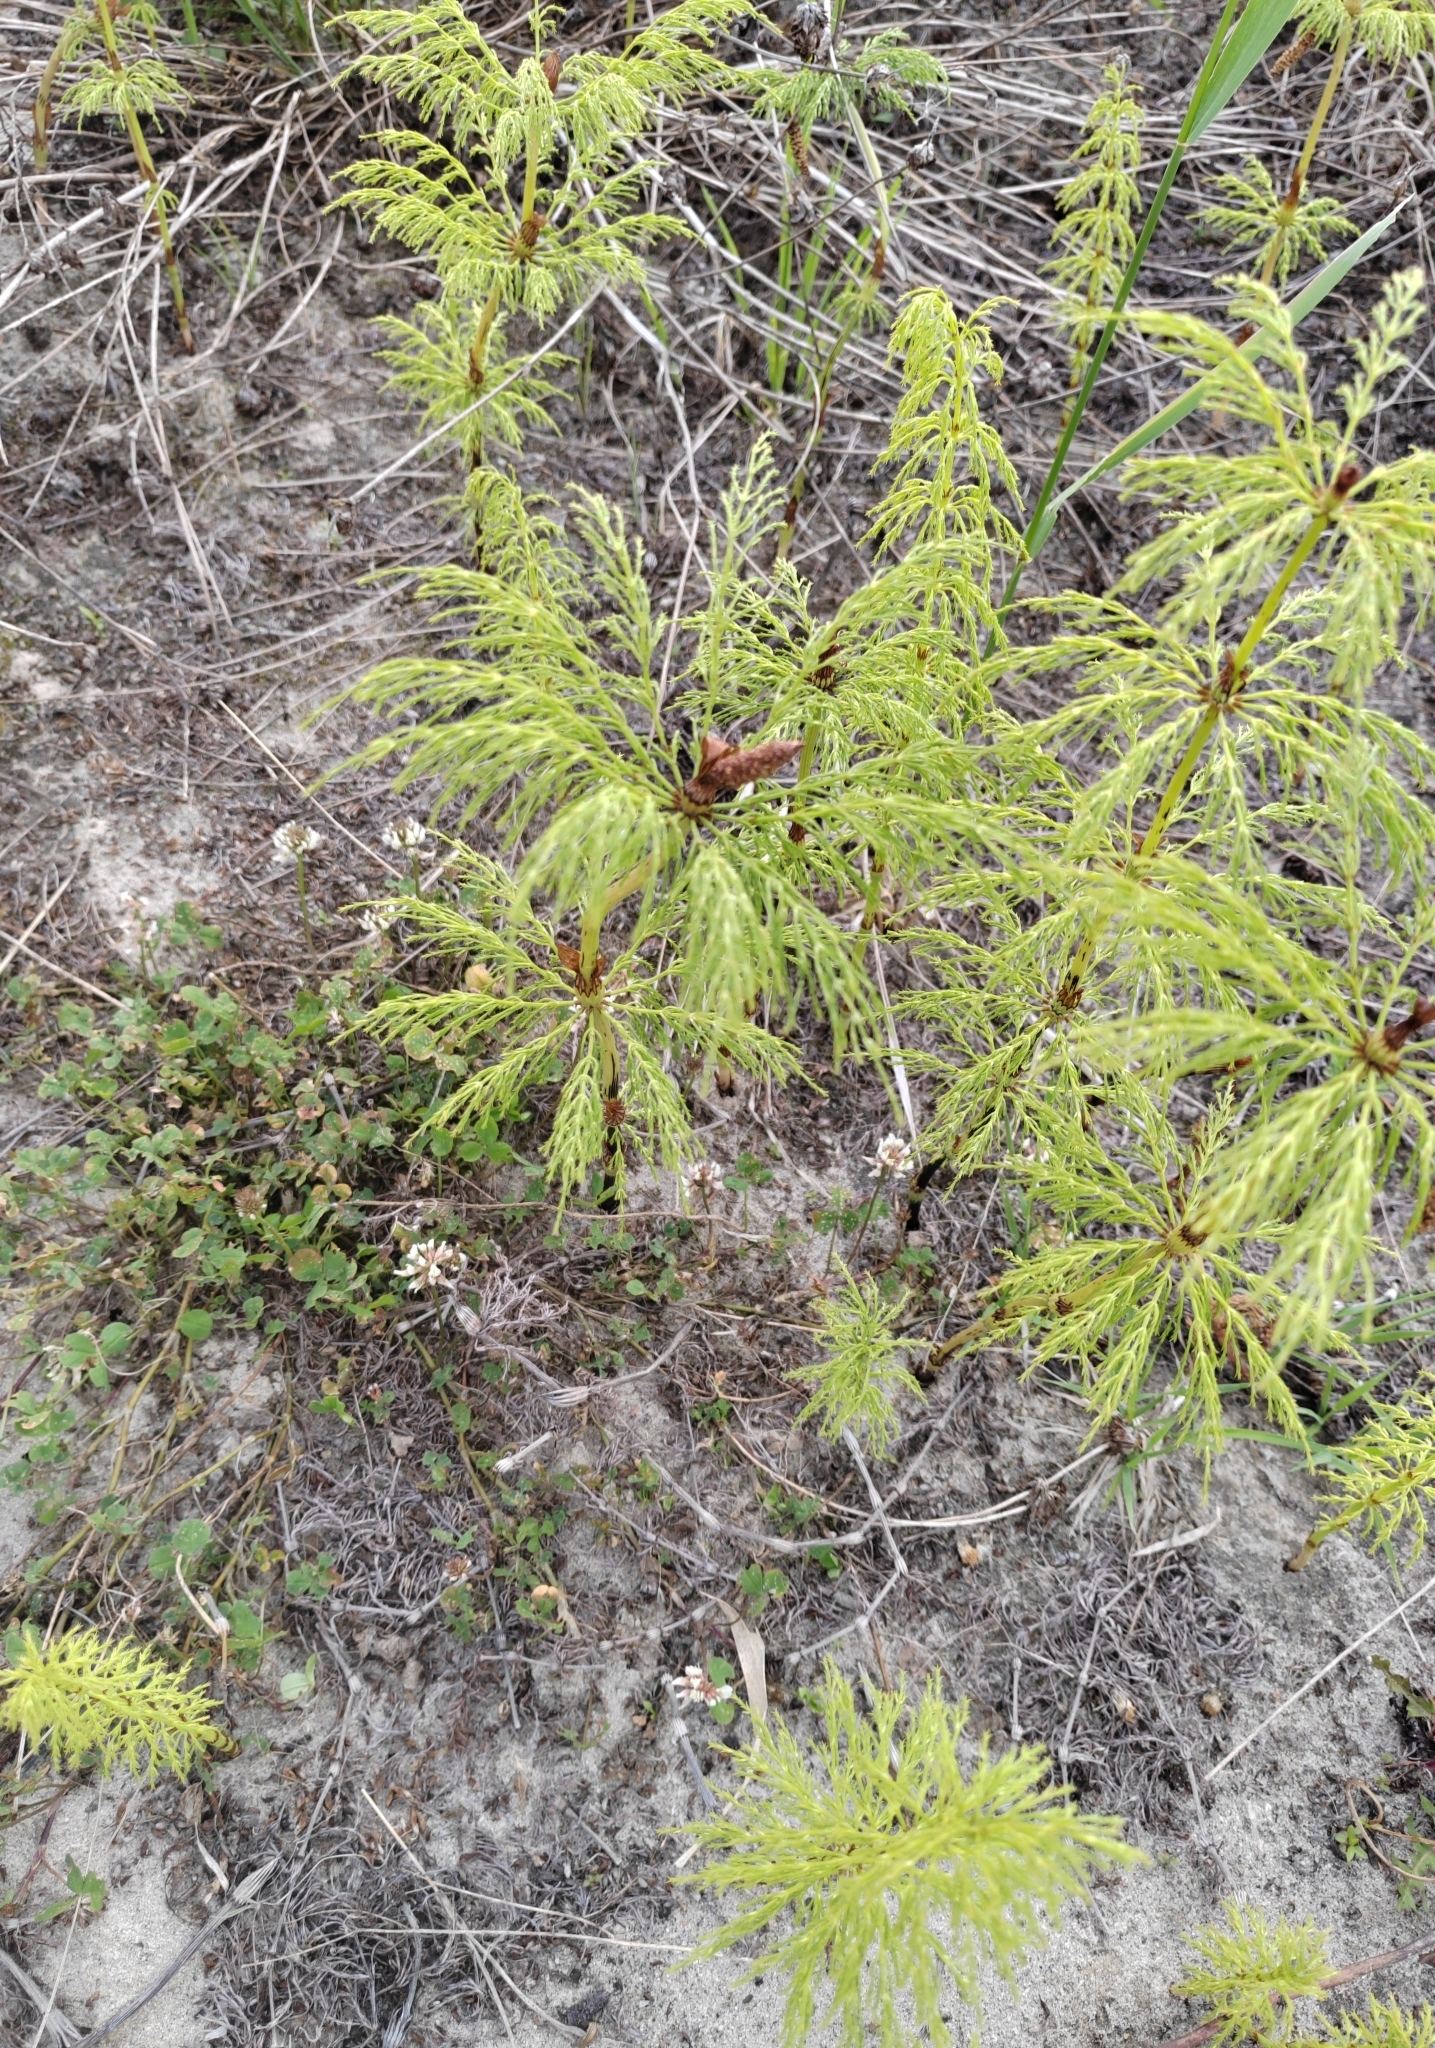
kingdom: Plantae
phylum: Tracheophyta
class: Polypodiopsida
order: Equisetales
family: Equisetaceae
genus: Equisetum
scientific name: Equisetum sylvaticum
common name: Wood horsetail
